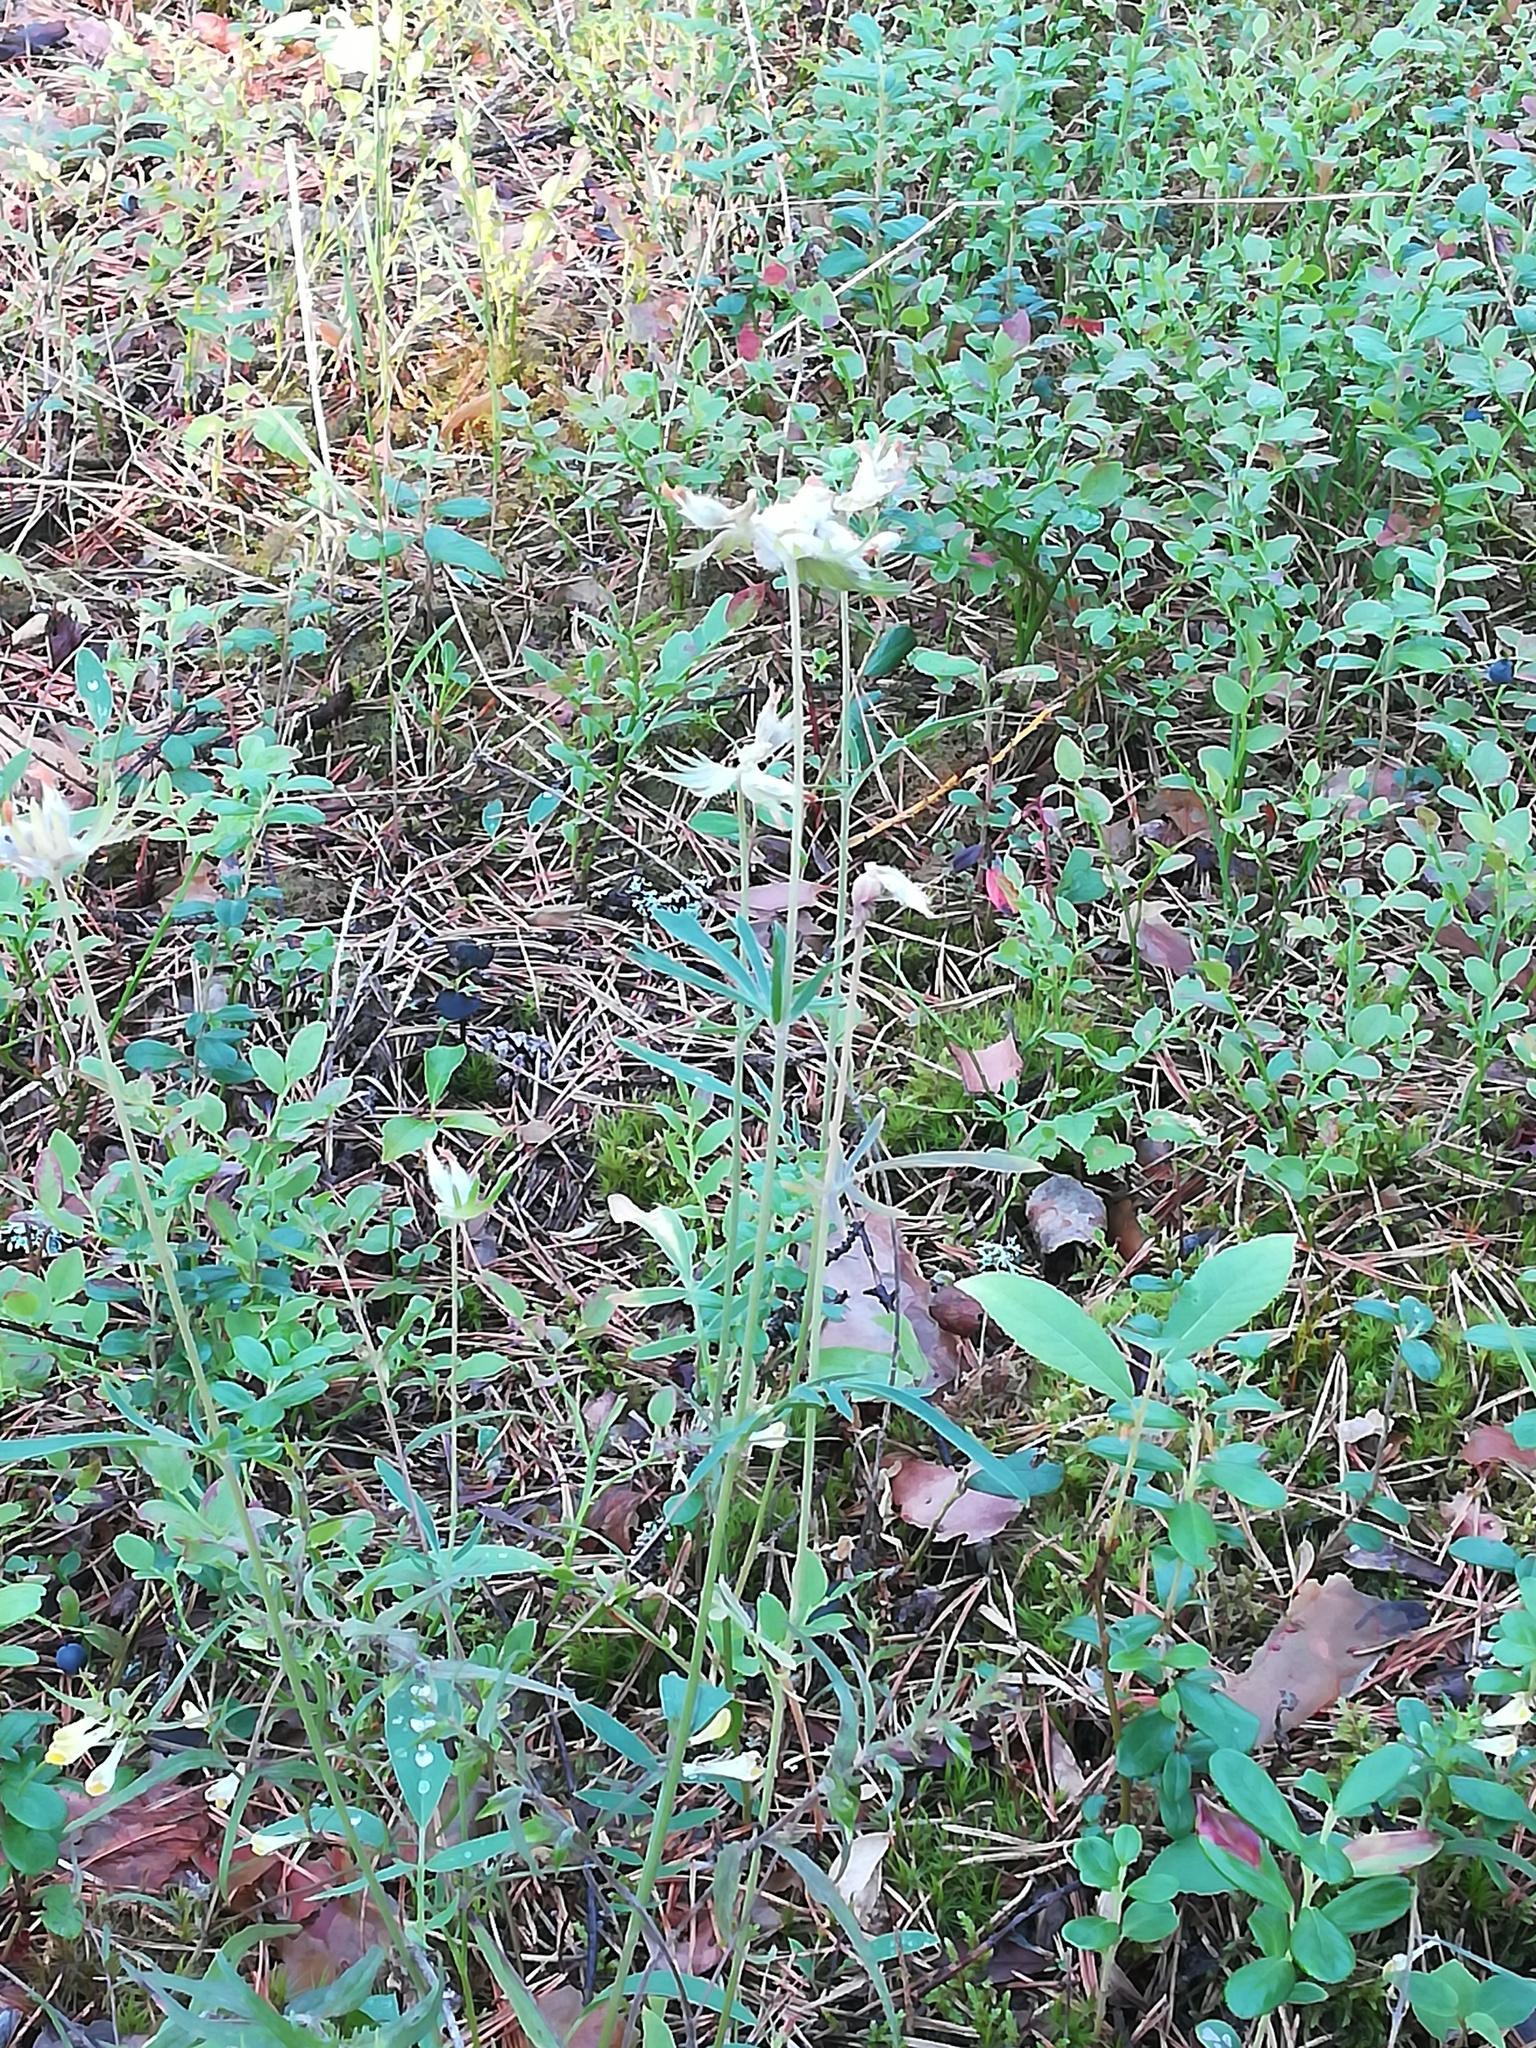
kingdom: Plantae
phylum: Tracheophyta
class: Magnoliopsida
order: Fabales
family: Fabaceae
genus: Anthyllis
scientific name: Anthyllis vulneraria
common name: Kidney vetch
